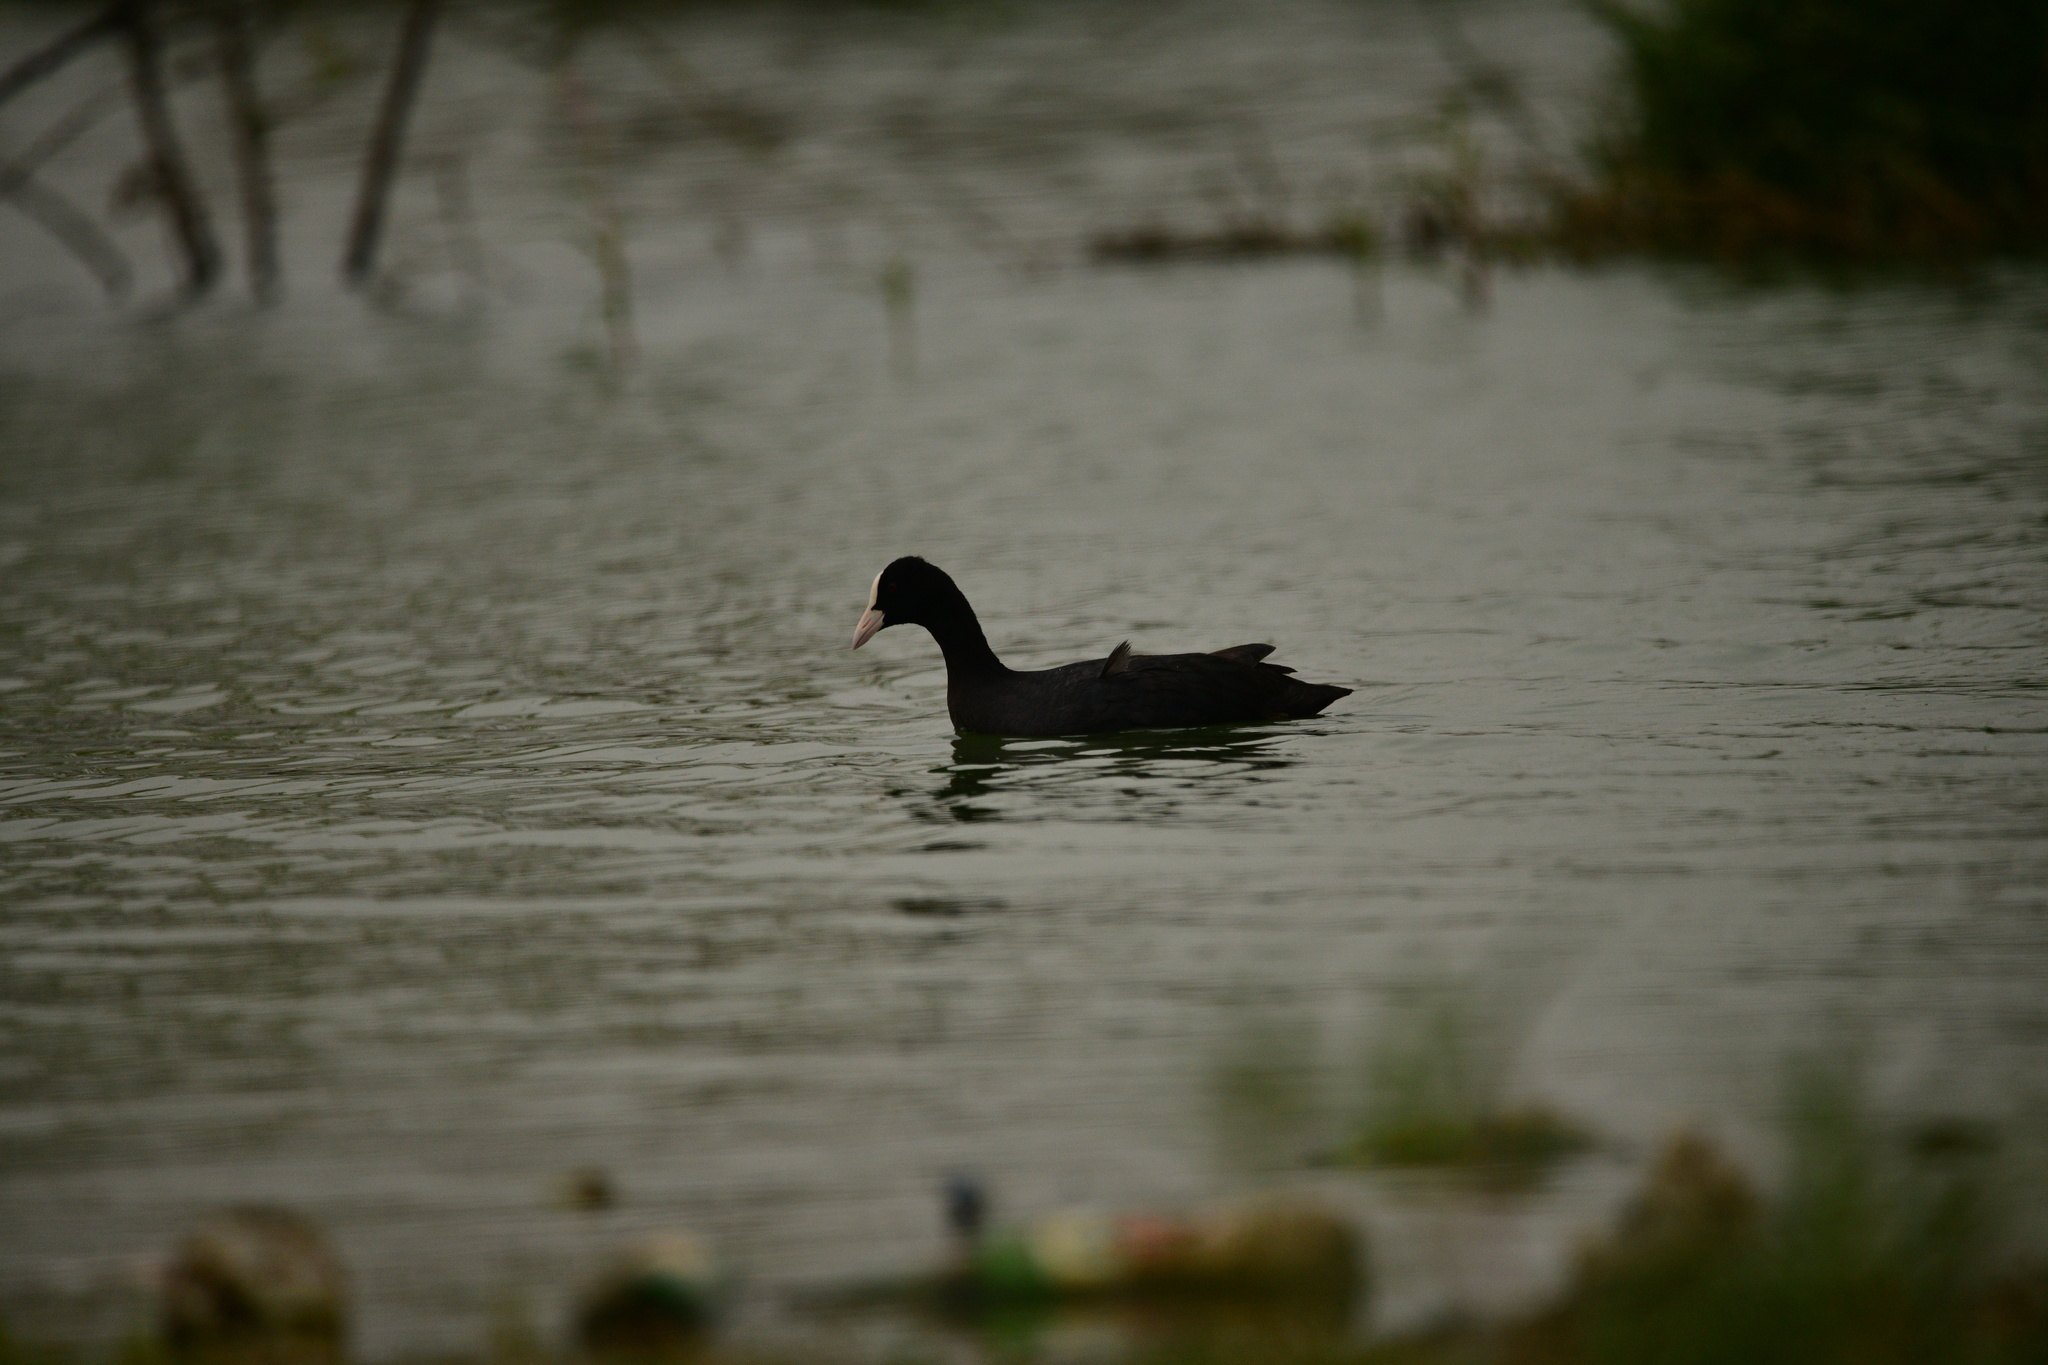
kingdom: Animalia
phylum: Chordata
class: Aves
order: Gruiformes
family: Rallidae
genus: Fulica
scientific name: Fulica atra
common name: Eurasian coot
